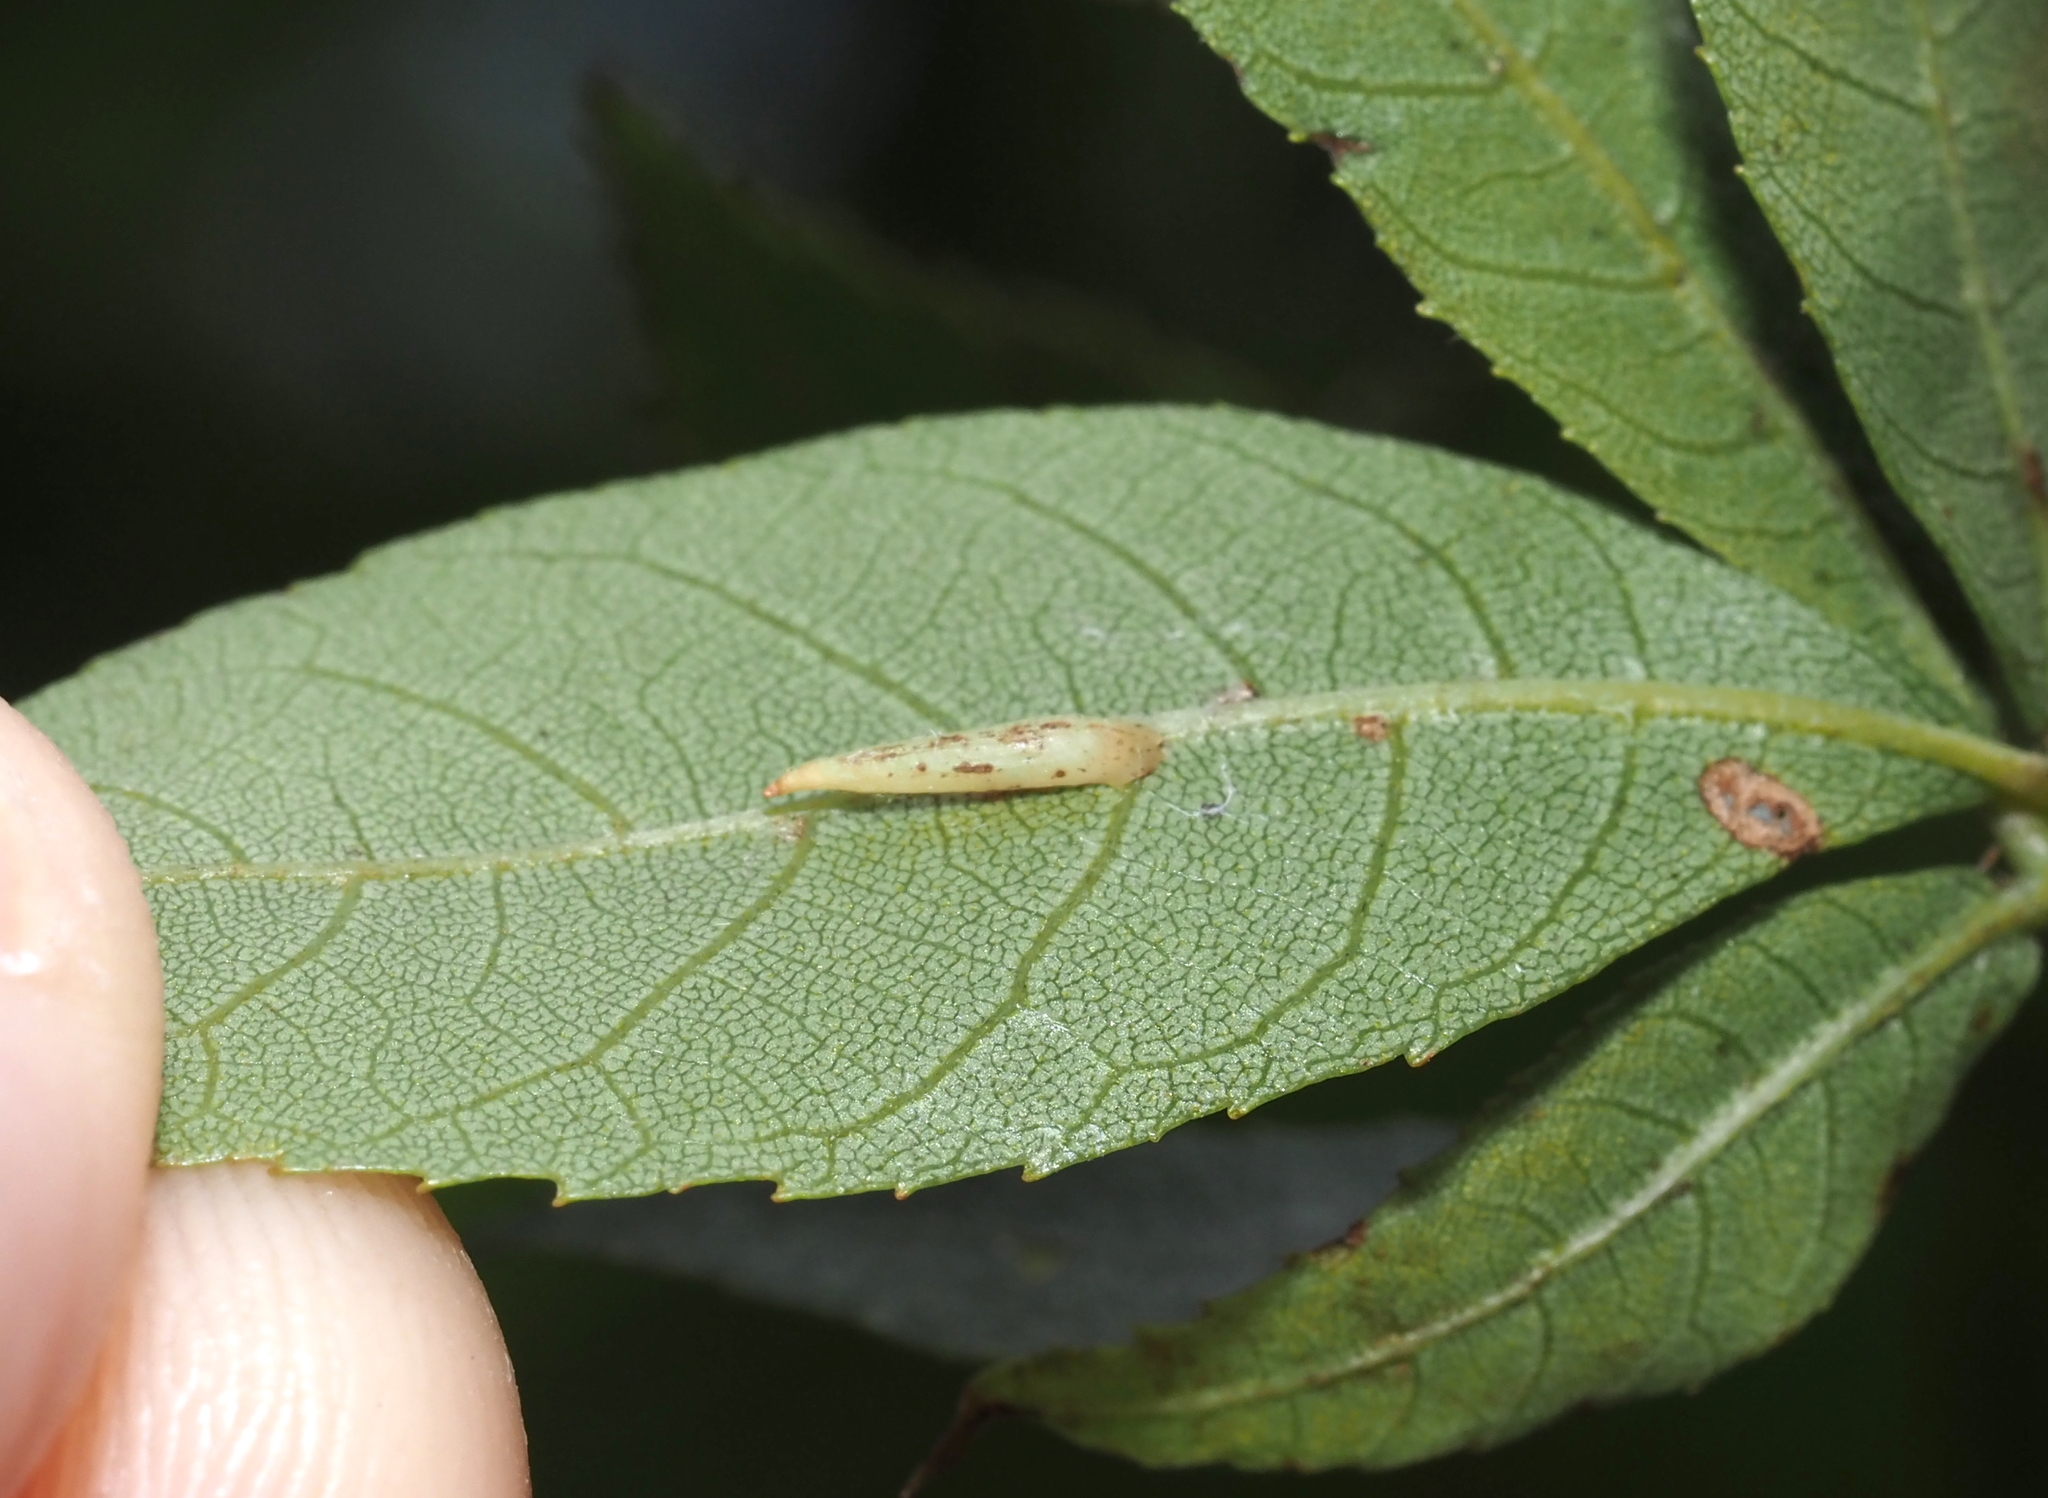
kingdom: Animalia
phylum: Arthropoda
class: Insecta
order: Diptera
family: Cecidomyiidae
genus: Caryomyia
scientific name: Caryomyia
